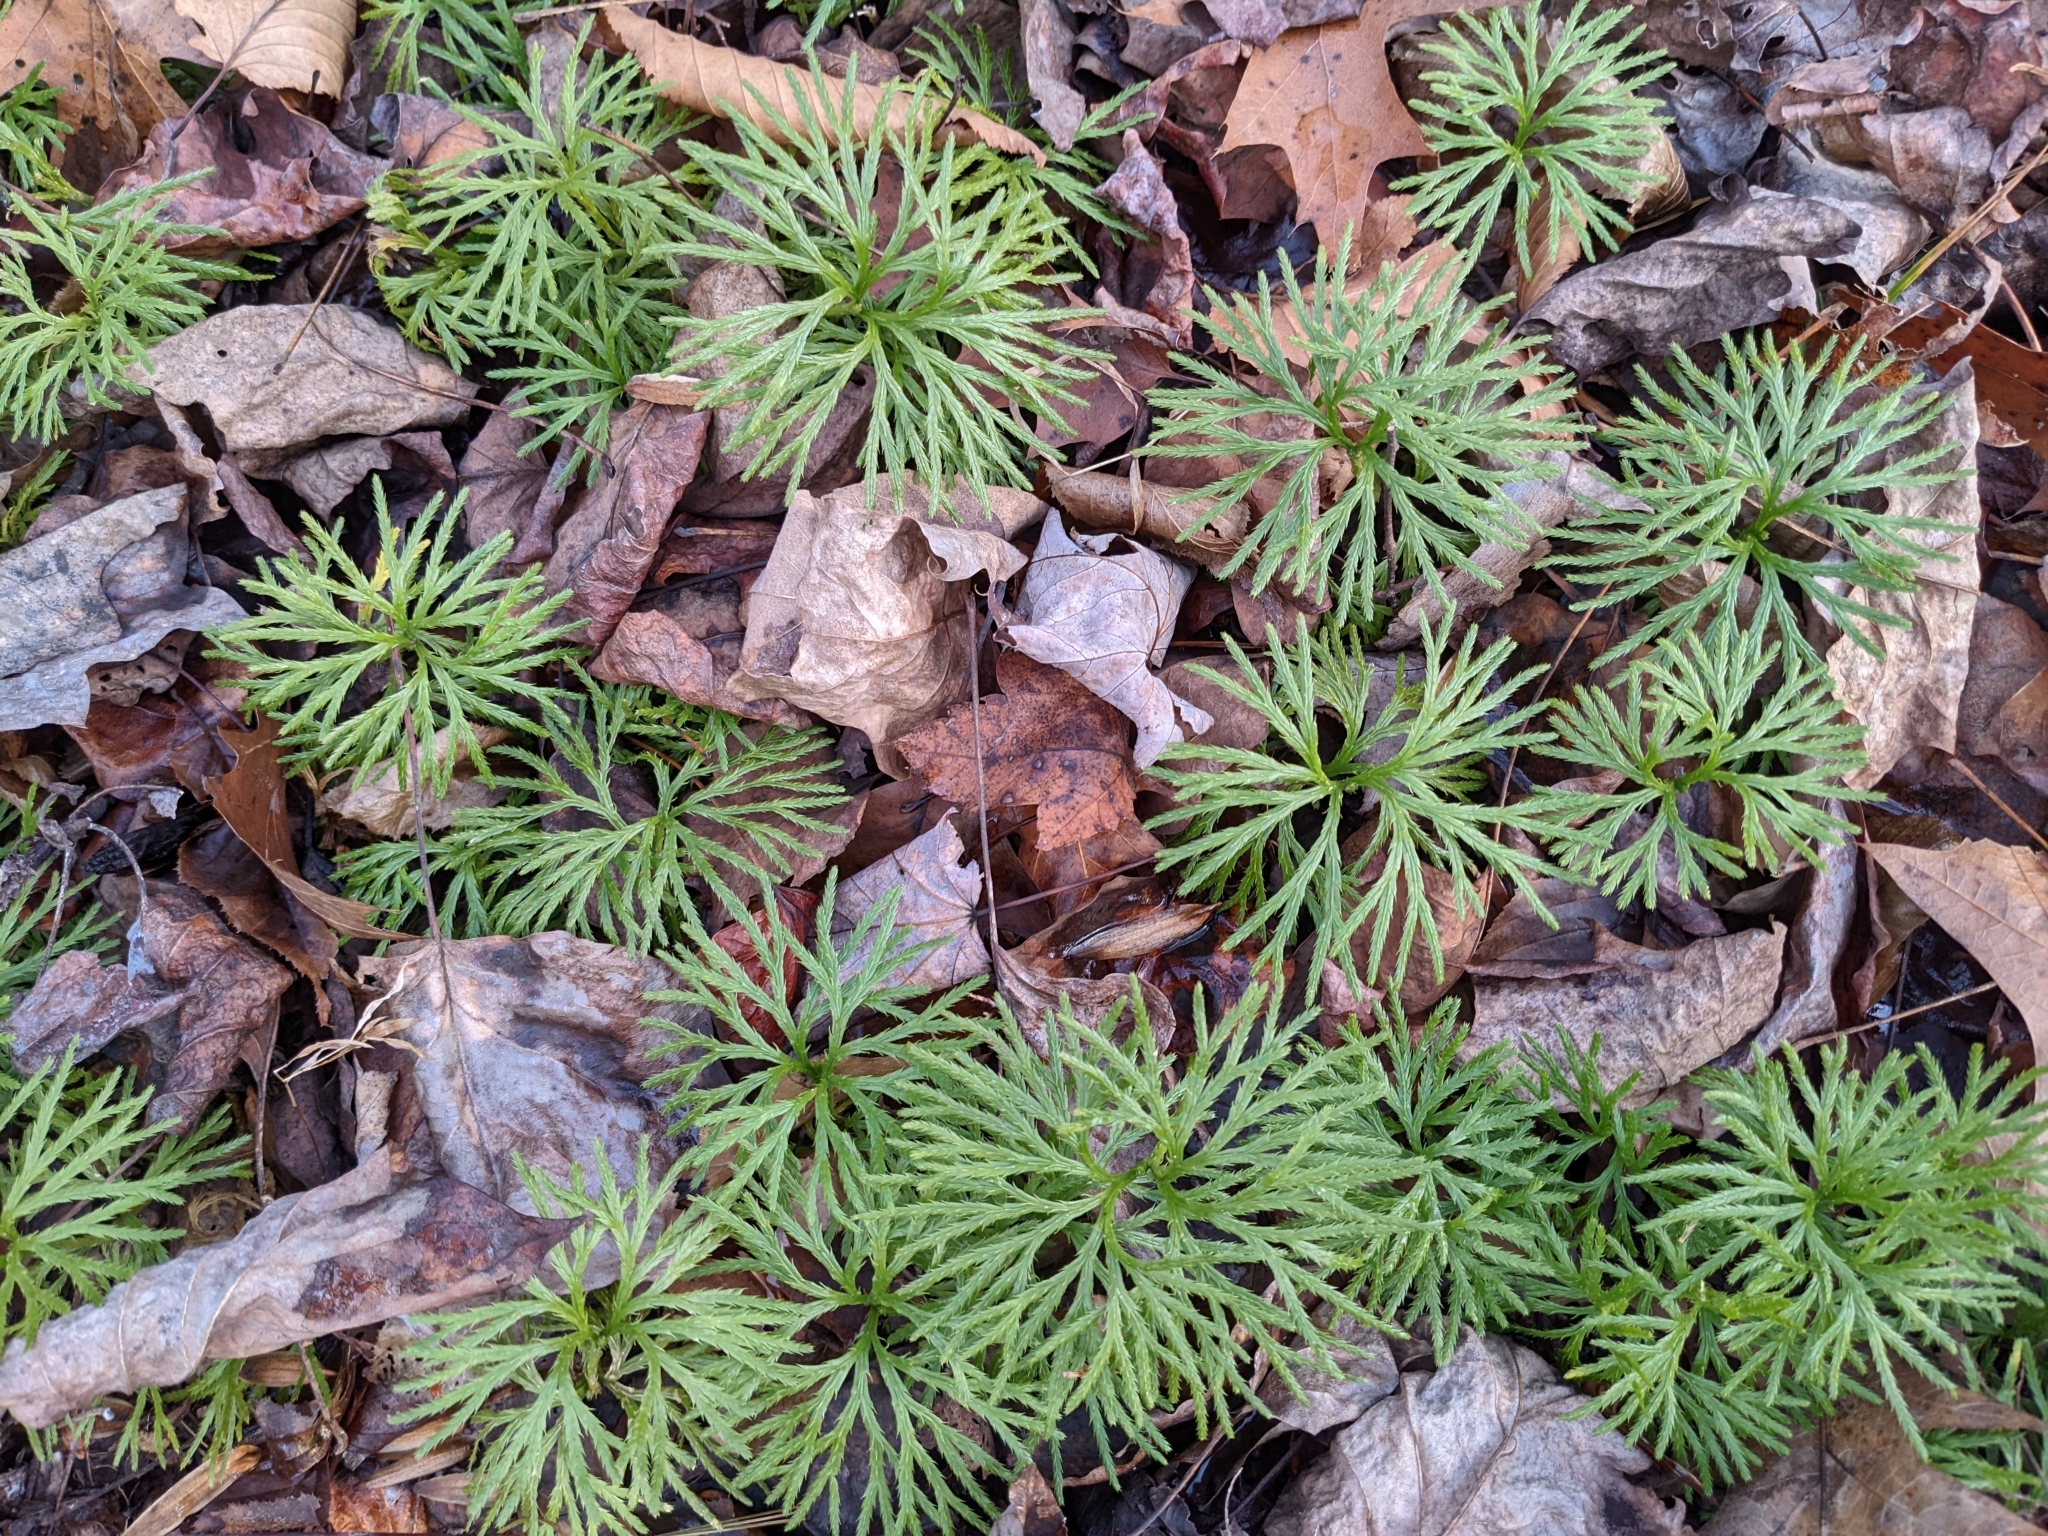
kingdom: Plantae
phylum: Tracheophyta
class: Lycopodiopsida
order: Lycopodiales
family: Lycopodiaceae
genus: Diphasiastrum
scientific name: Diphasiastrum digitatum
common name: Southern running-pine
